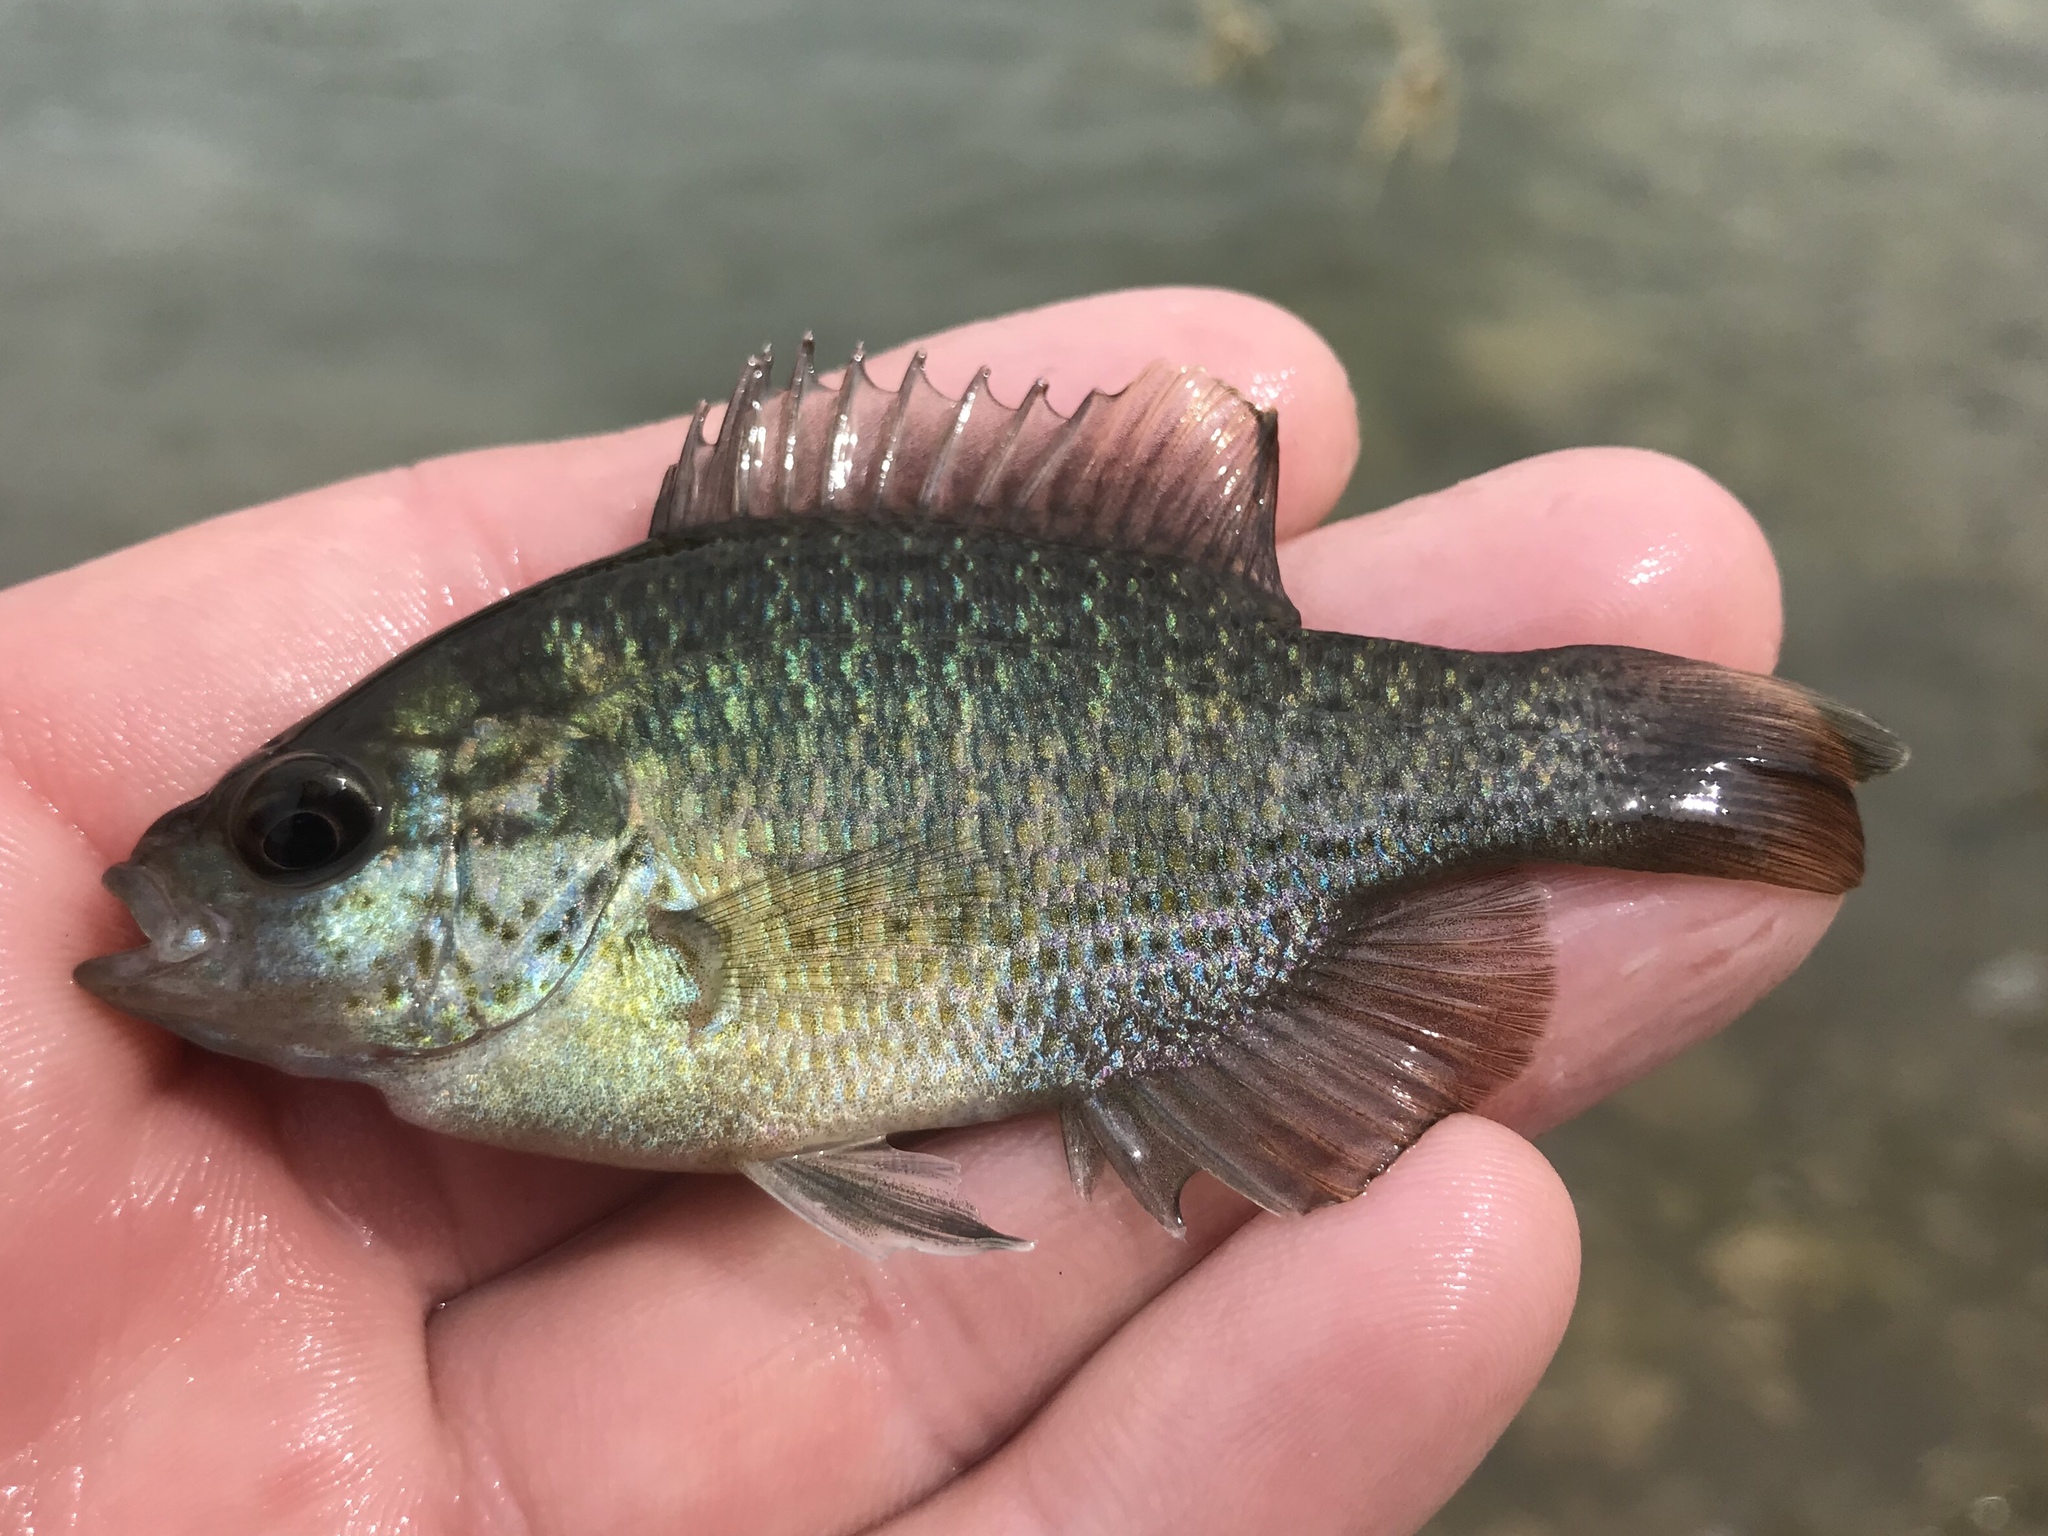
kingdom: Animalia
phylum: Chordata
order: Perciformes
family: Centrarchidae
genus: Lepomis
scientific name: Lepomis miniatus
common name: Redspotted sunfish
